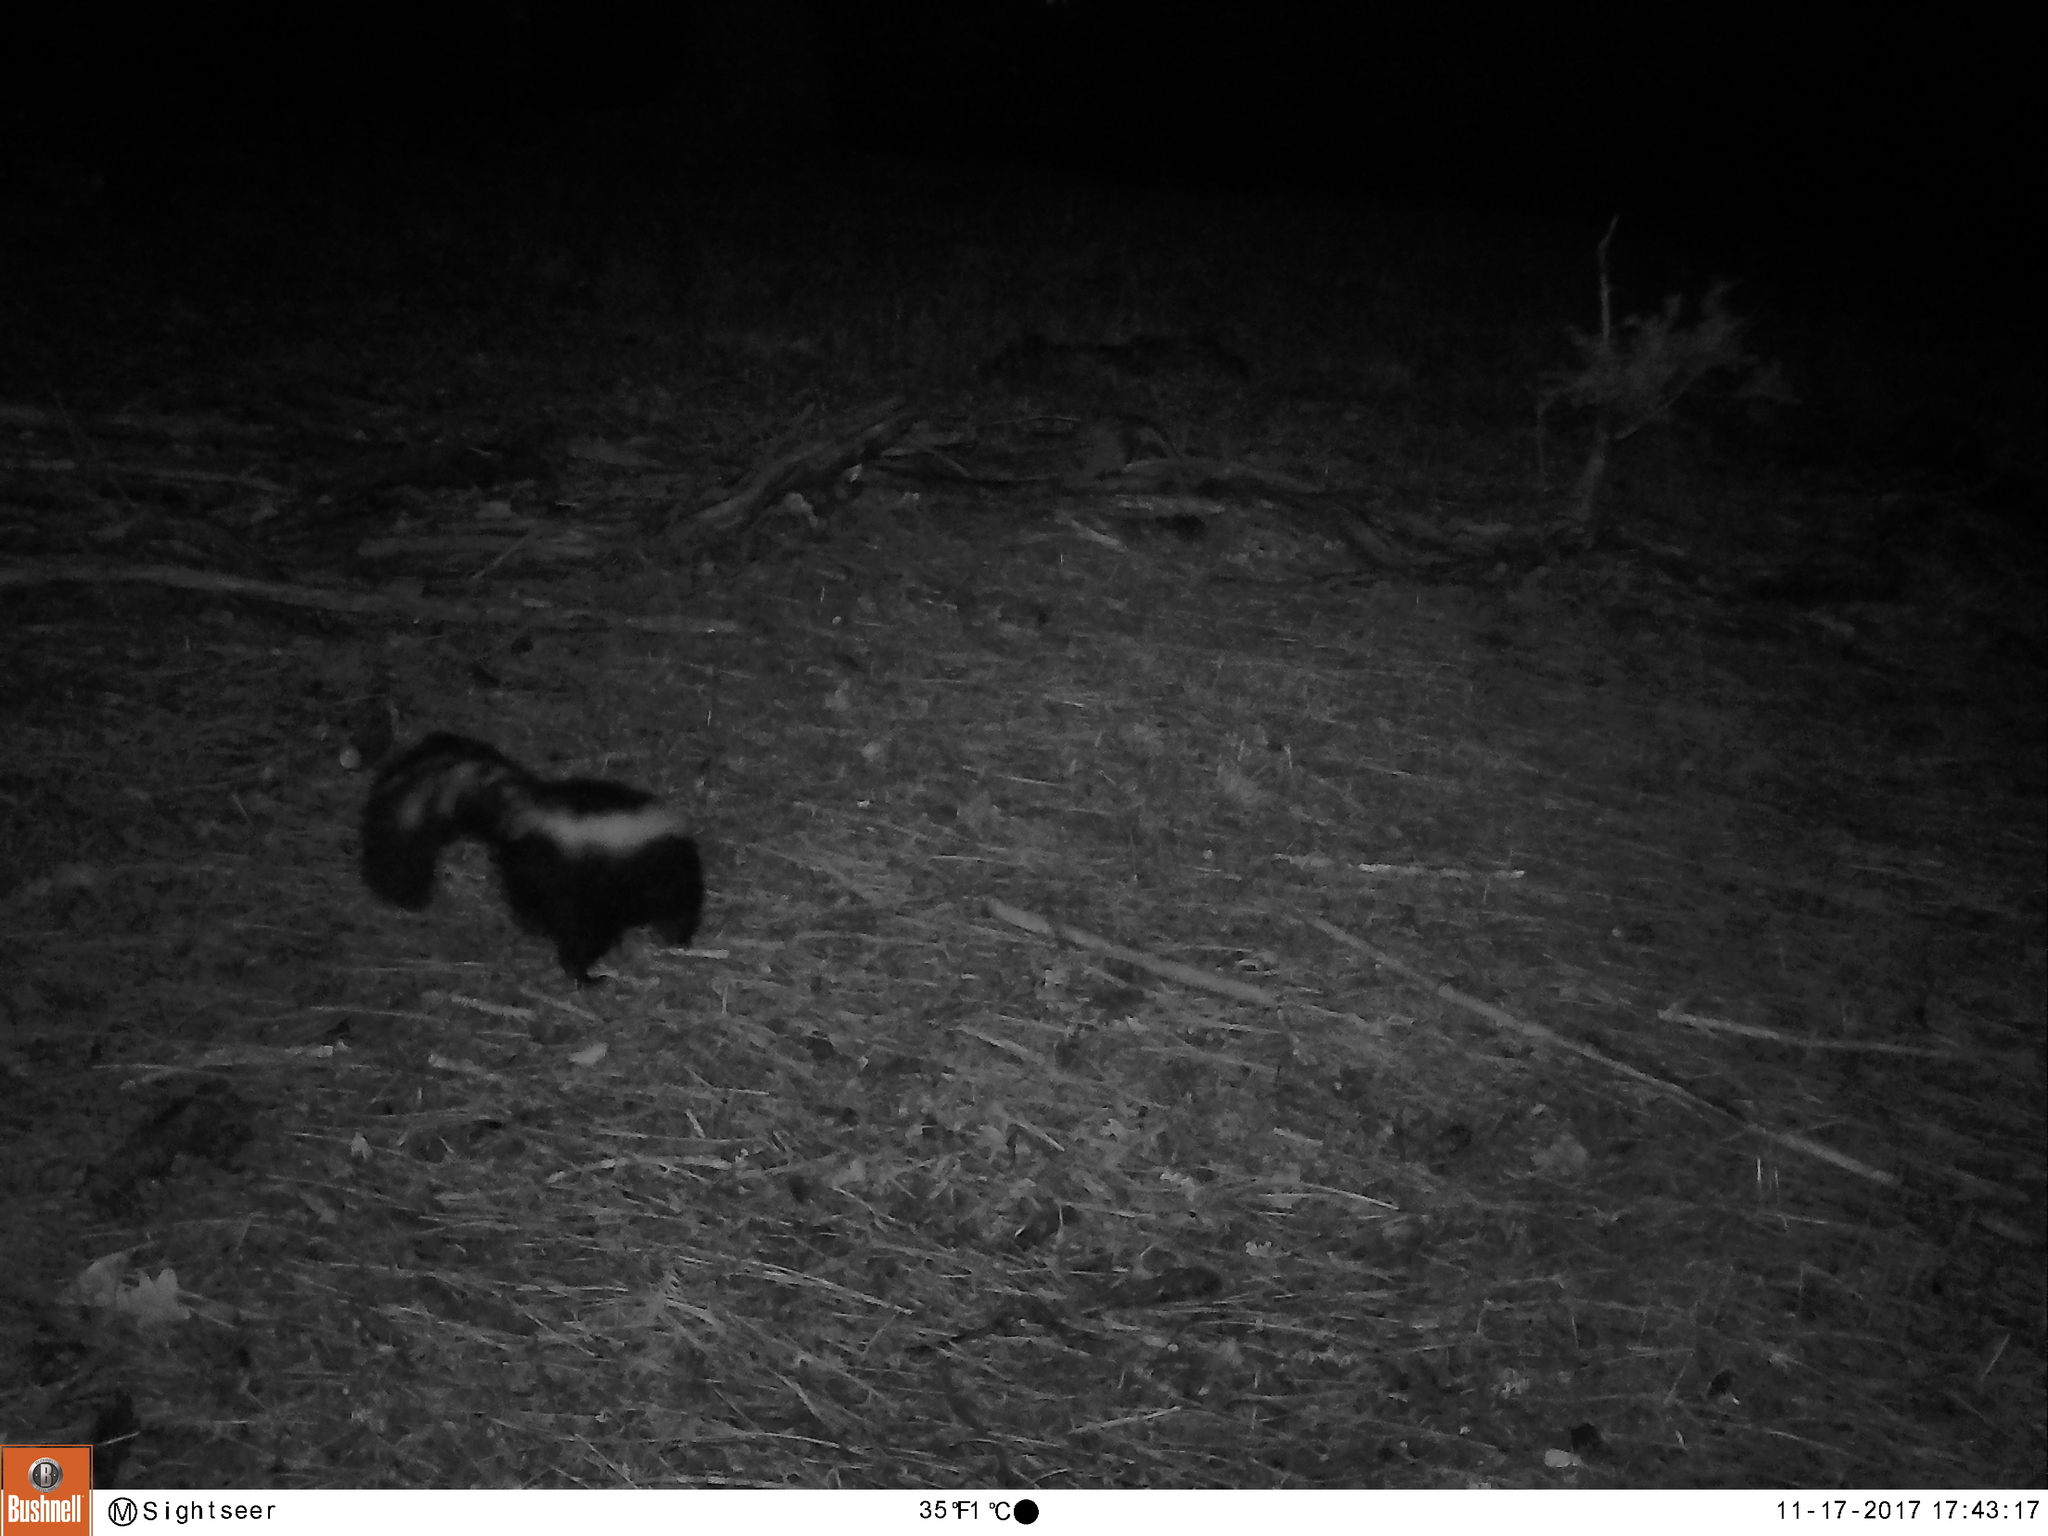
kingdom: Animalia
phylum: Chordata
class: Mammalia
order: Carnivora
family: Mephitidae
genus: Mephitis
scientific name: Mephitis mephitis
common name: Striped skunk
